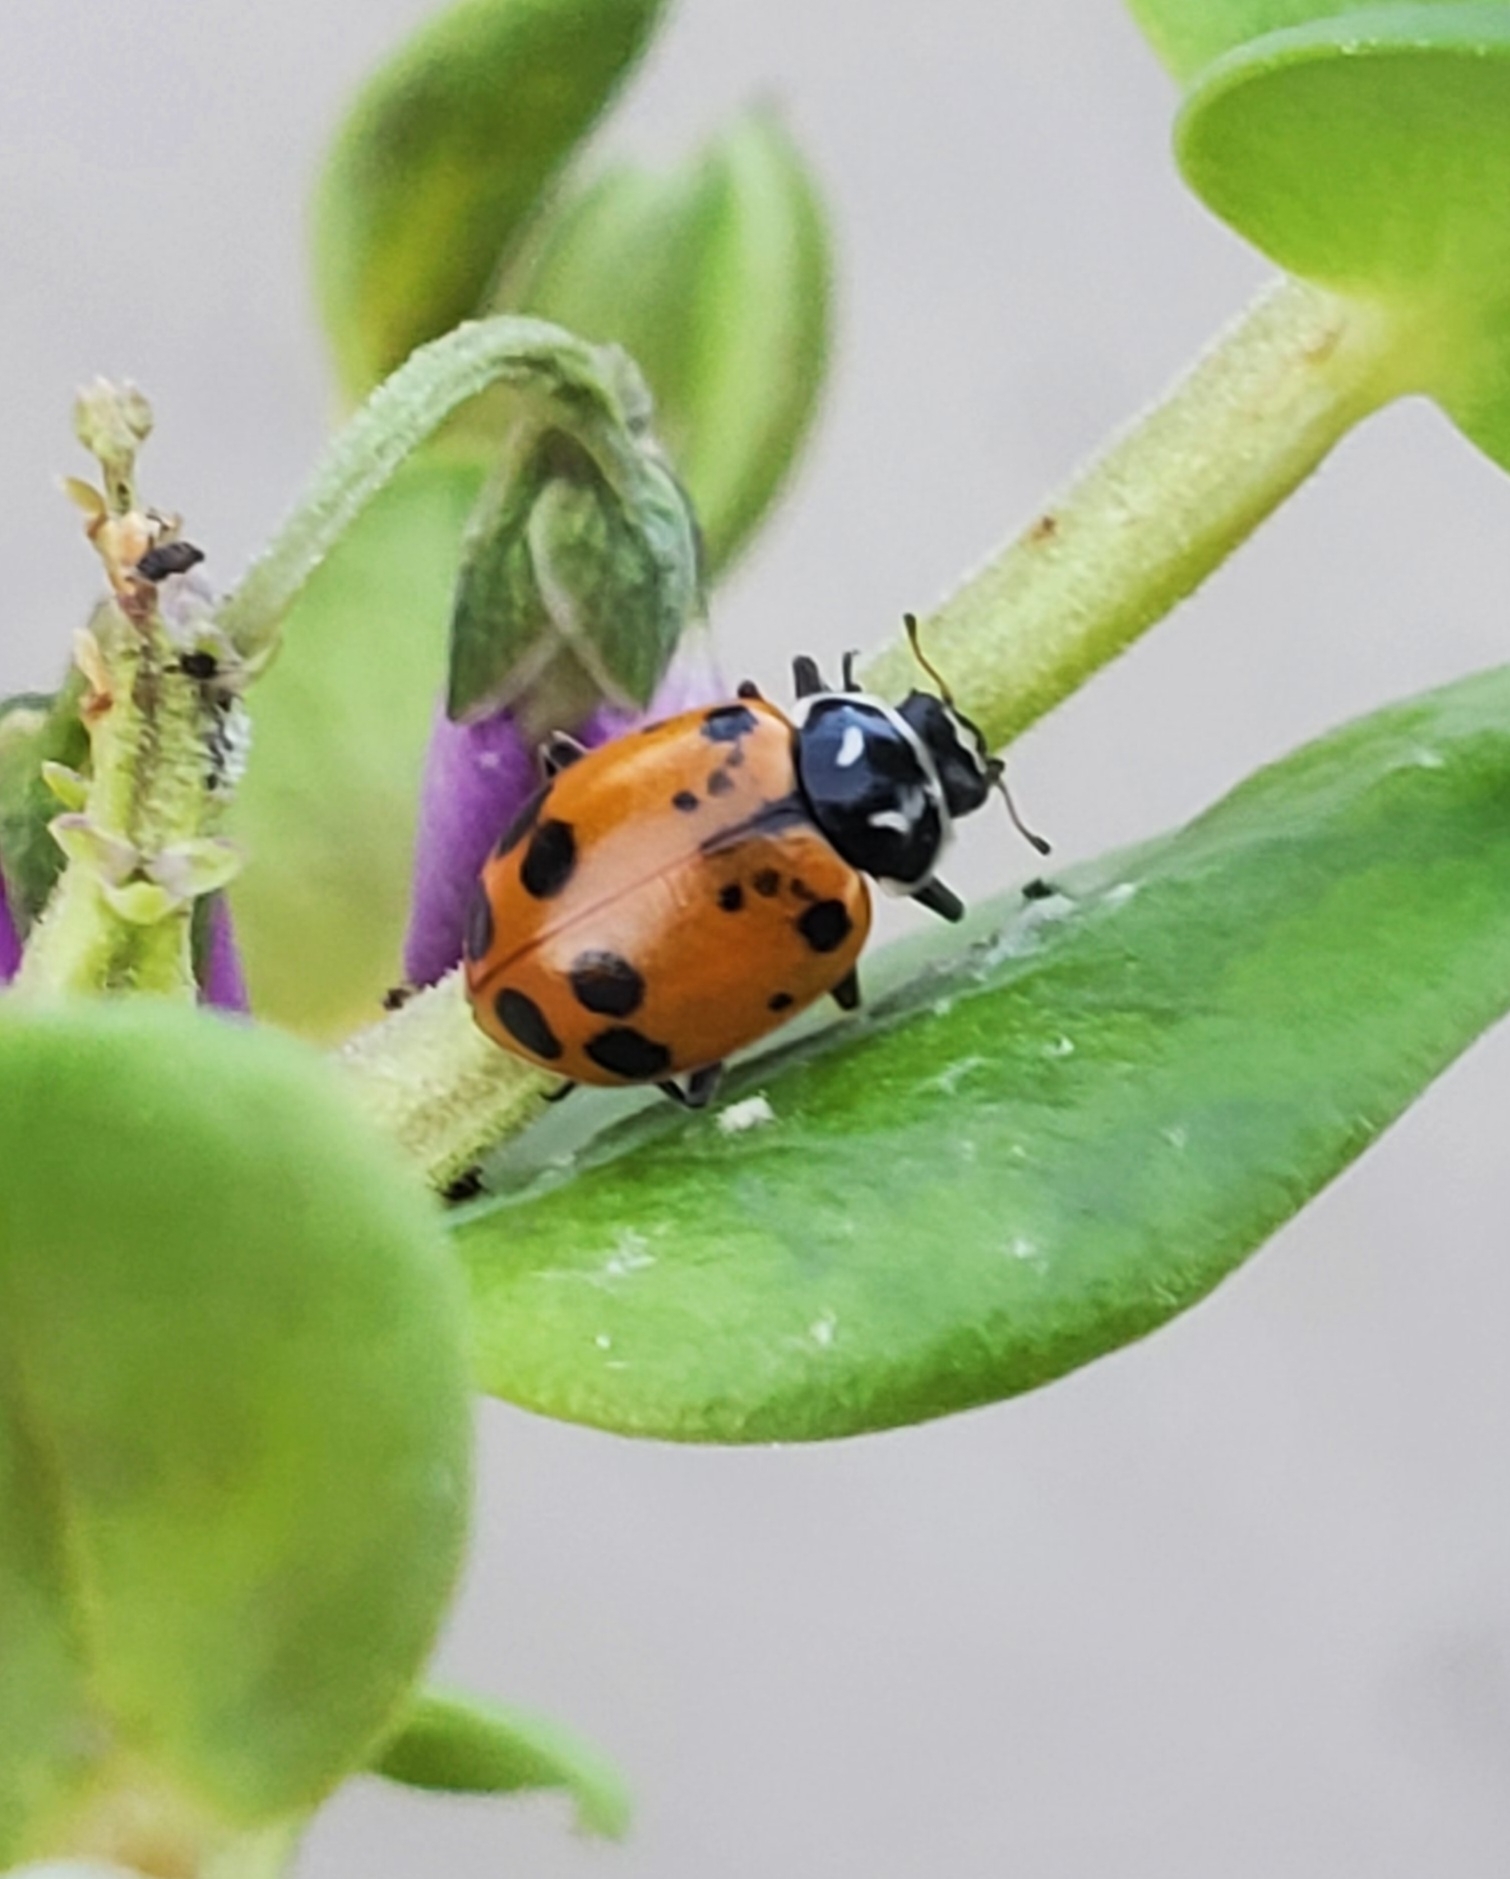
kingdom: Animalia
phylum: Arthropoda
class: Insecta
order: Coleoptera
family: Coccinellidae
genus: Hippodamia
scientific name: Hippodamia convergens
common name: Convergent lady beetle
